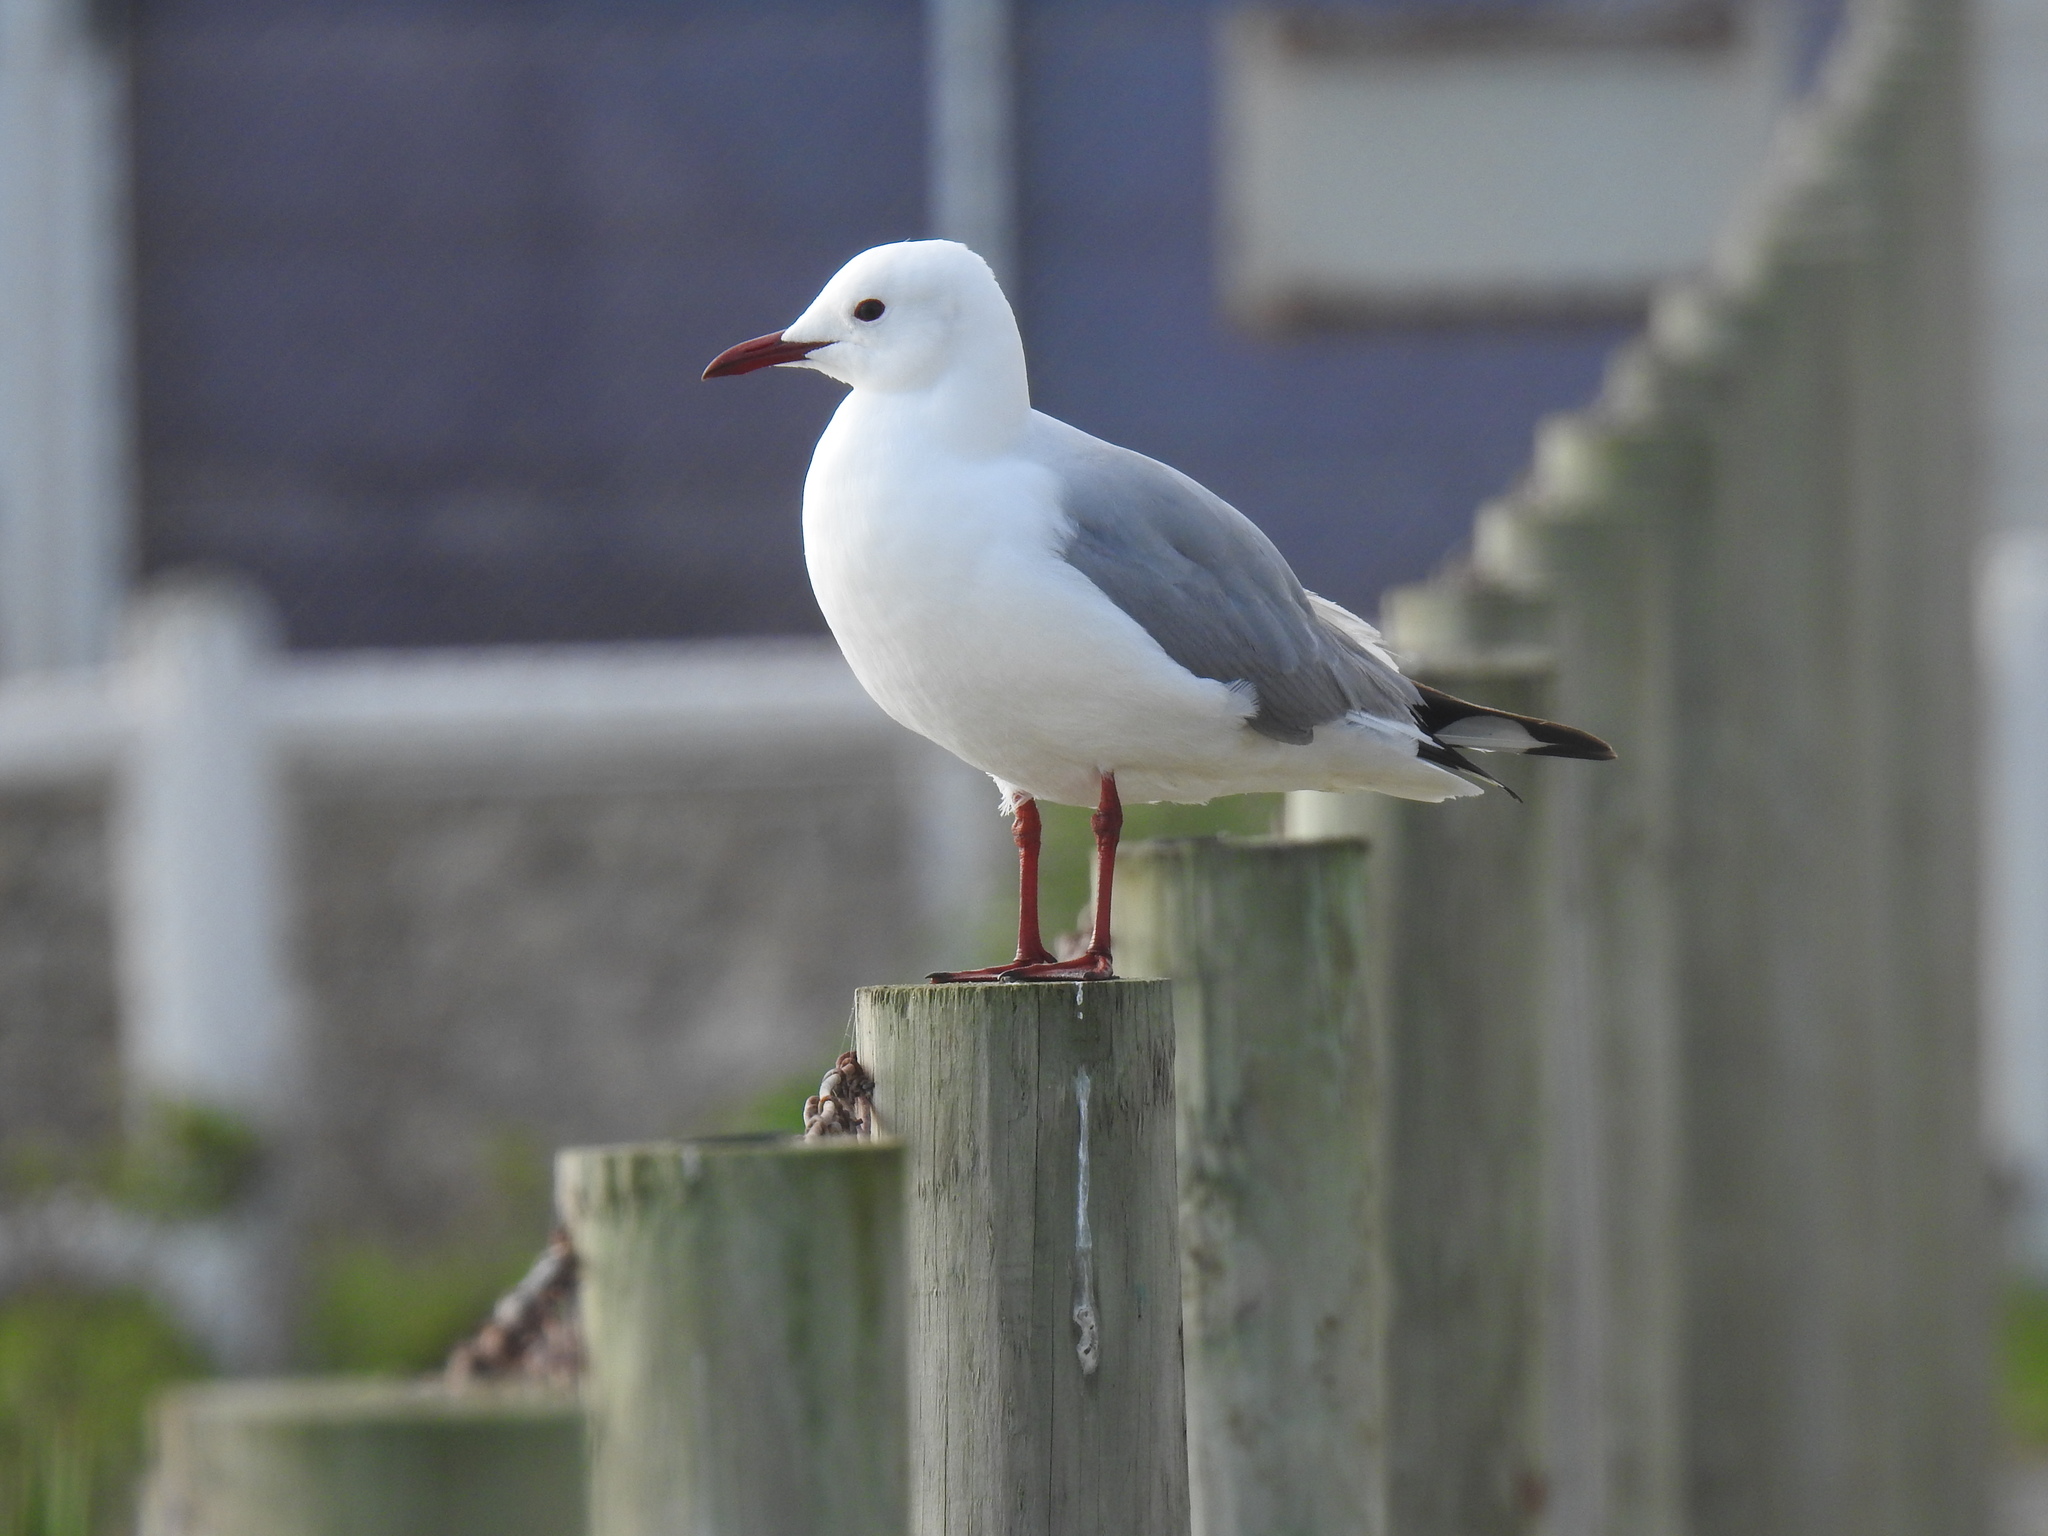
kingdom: Animalia
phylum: Chordata
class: Aves
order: Charadriiformes
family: Laridae
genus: Chroicocephalus
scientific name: Chroicocephalus hartlaubii
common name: Hartlaub's gull
